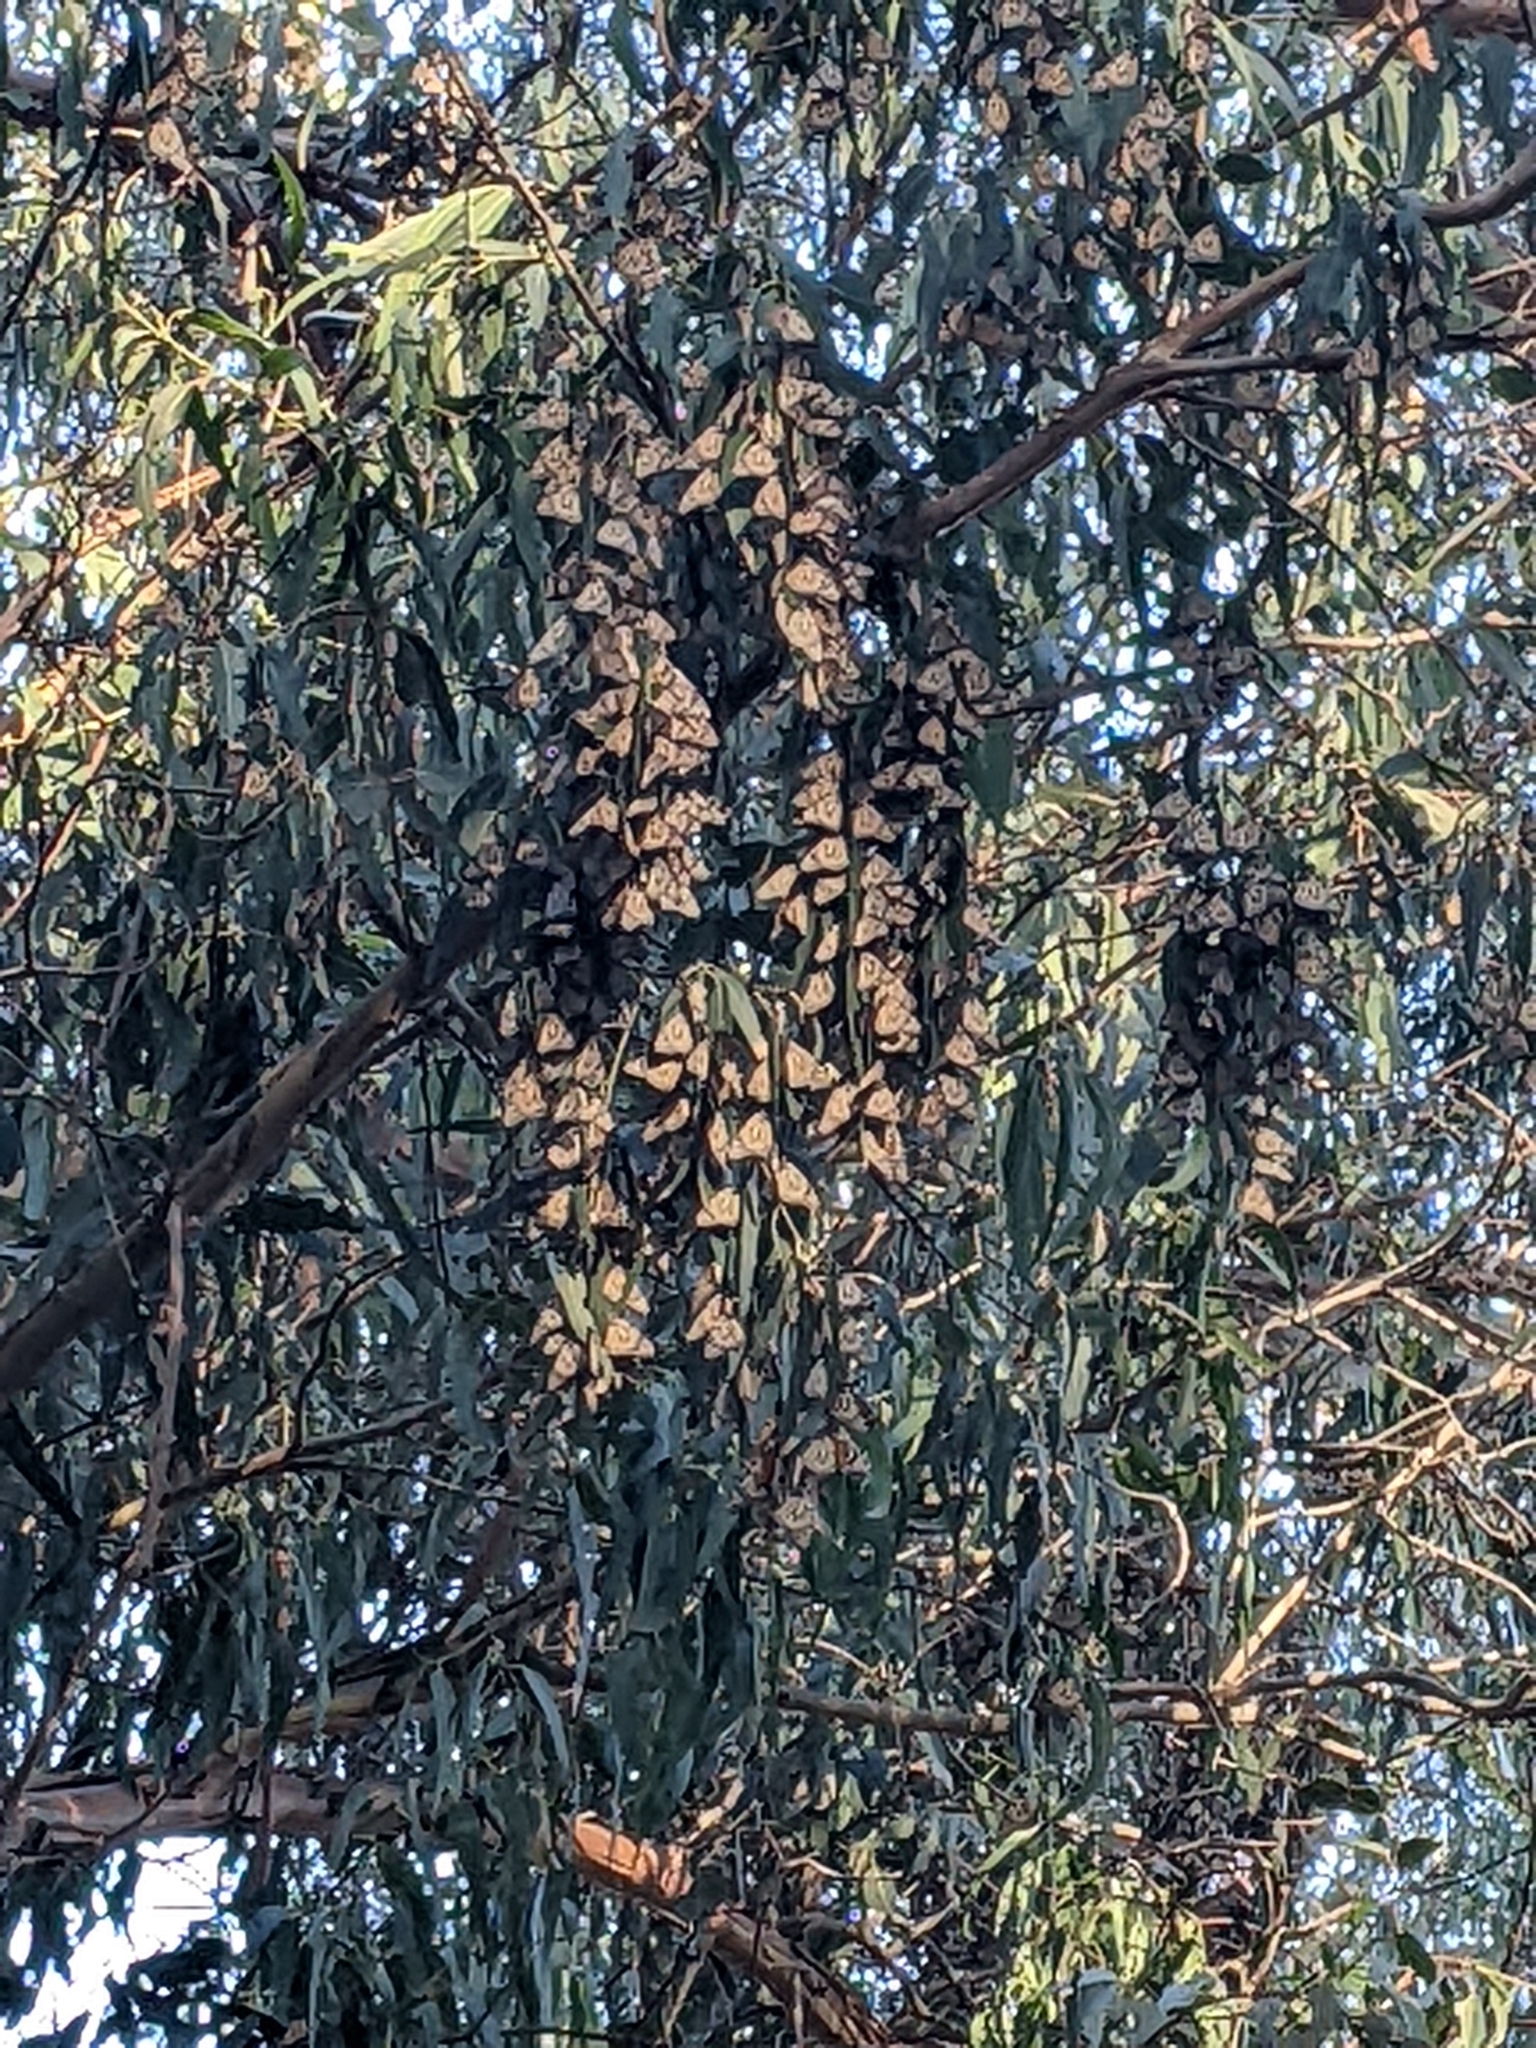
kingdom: Animalia
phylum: Arthropoda
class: Insecta
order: Lepidoptera
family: Nymphalidae
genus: Danaus
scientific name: Danaus plexippus
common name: Monarch
